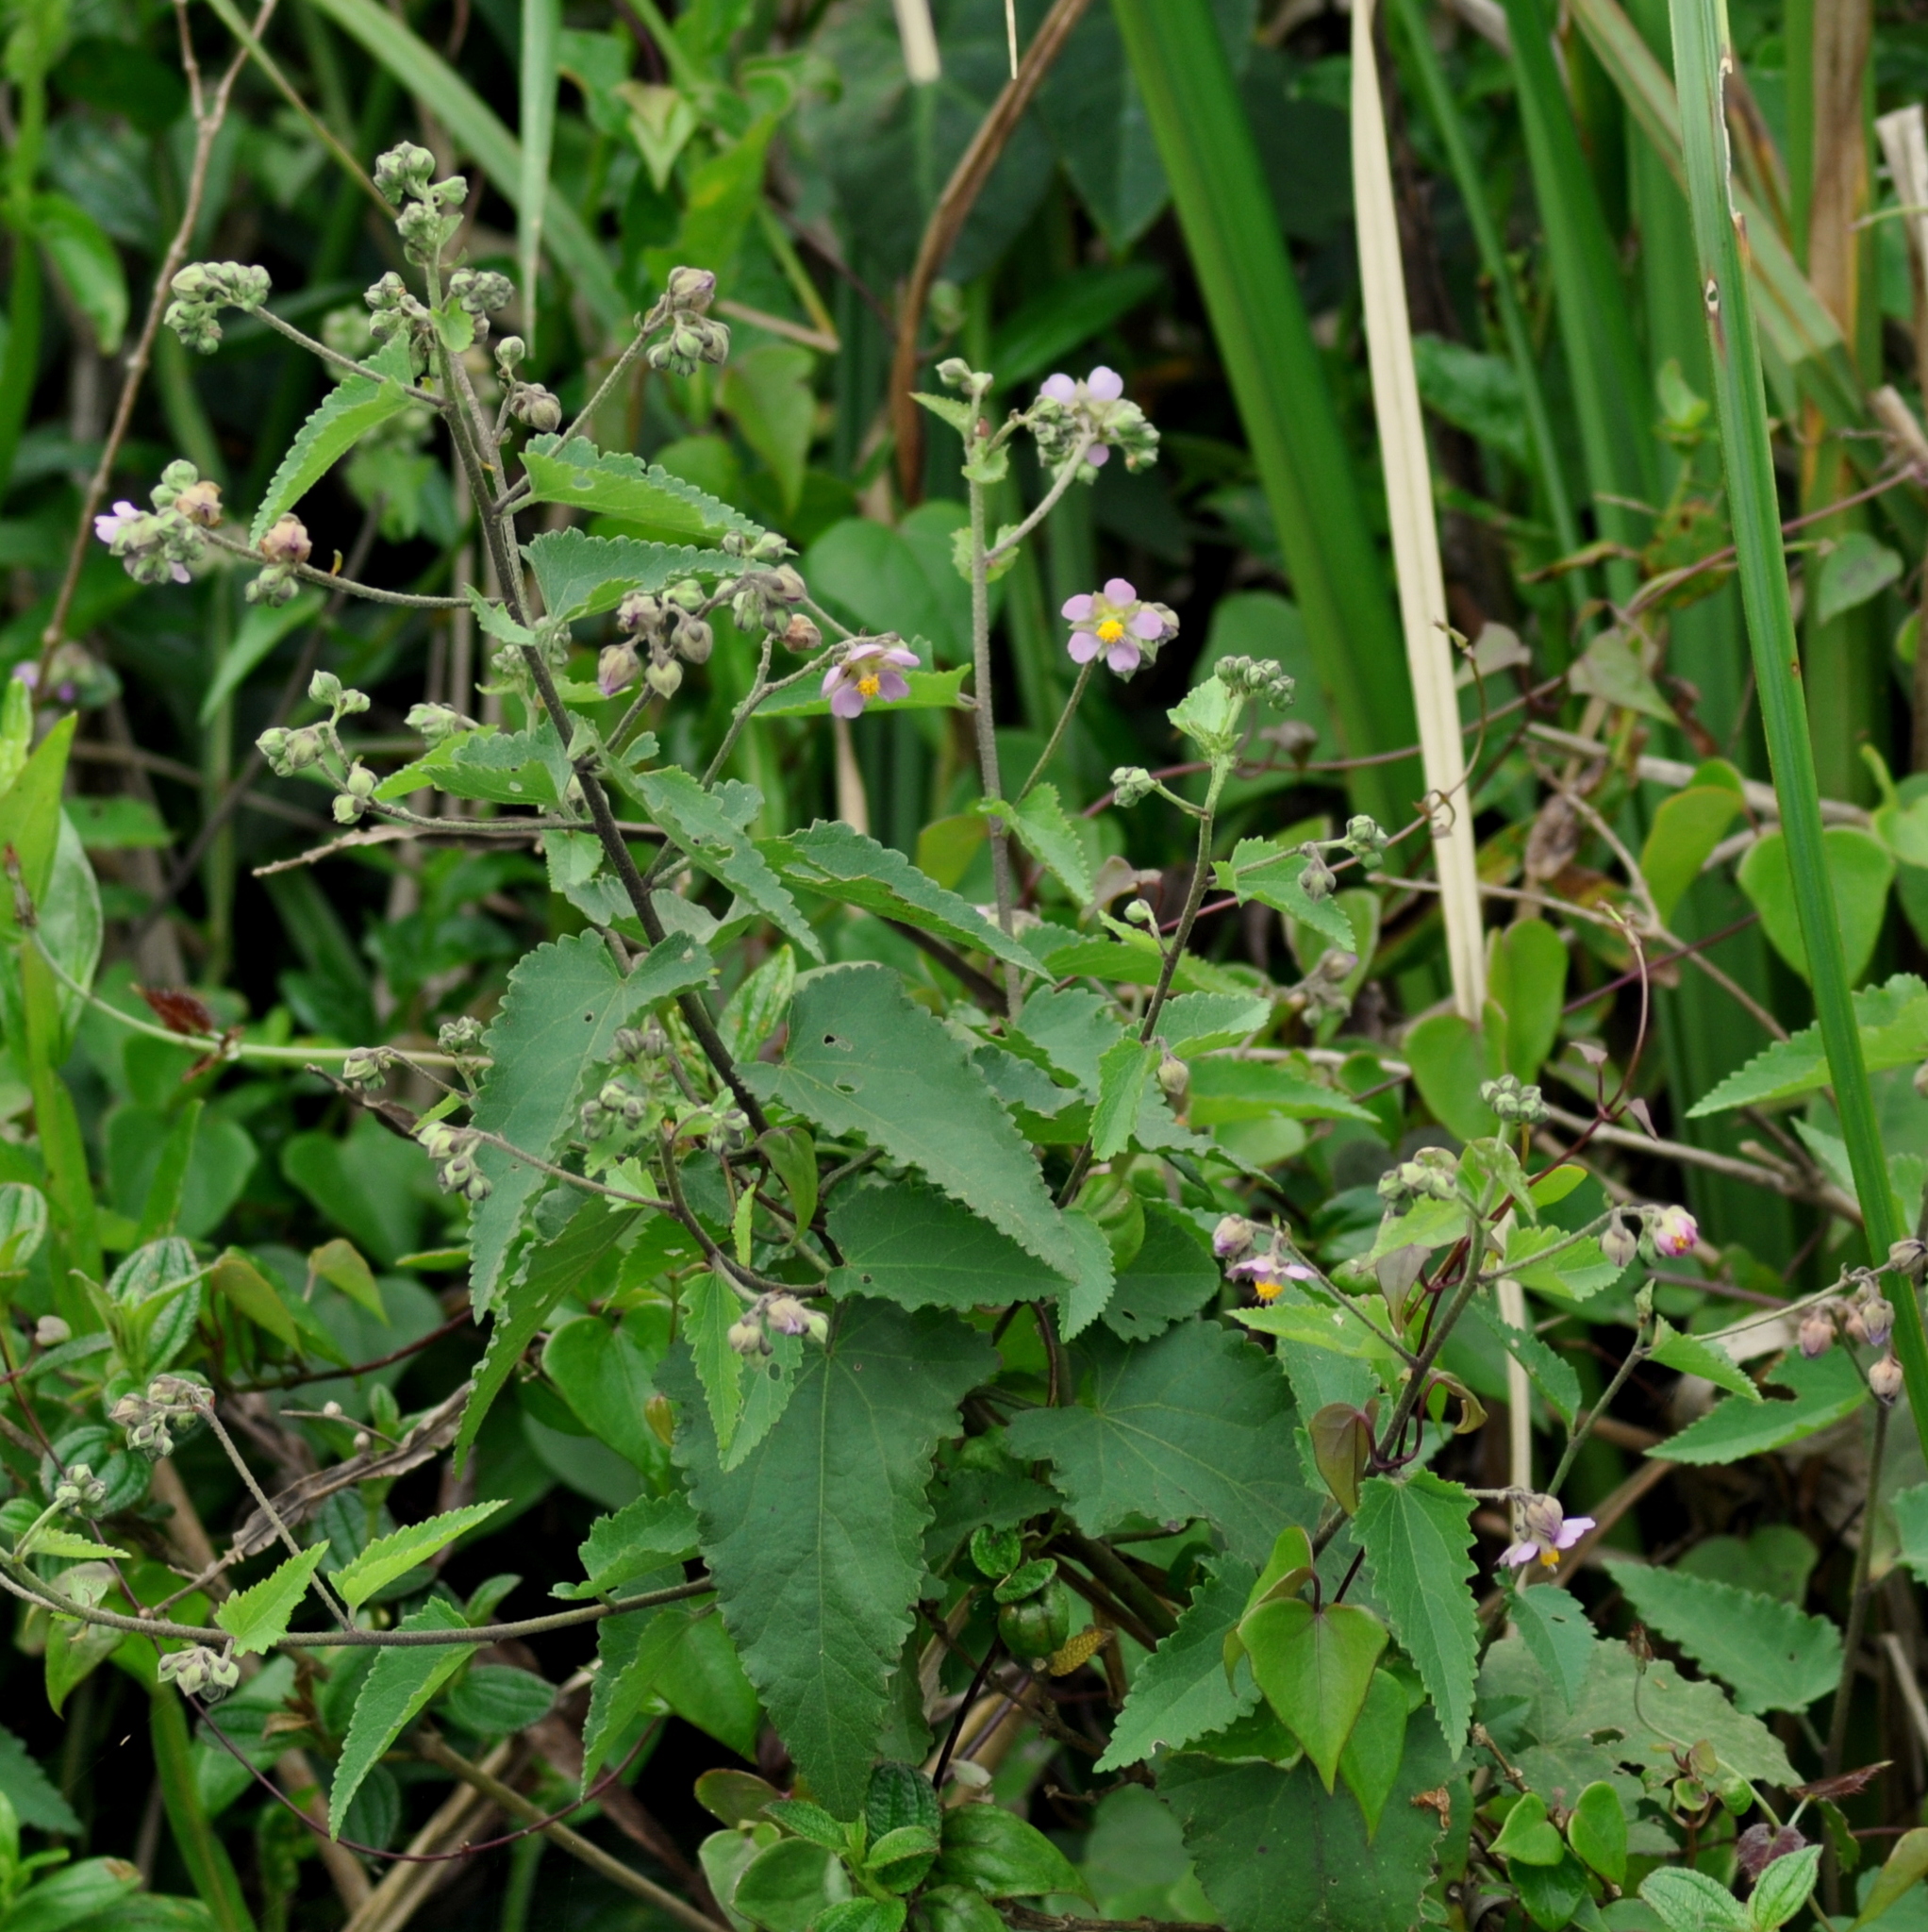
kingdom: Plantae
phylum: Tracheophyta
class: Magnoliopsida
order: Malvales
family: Malvaceae
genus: Monteiroa
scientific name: Monteiroa glomerata
